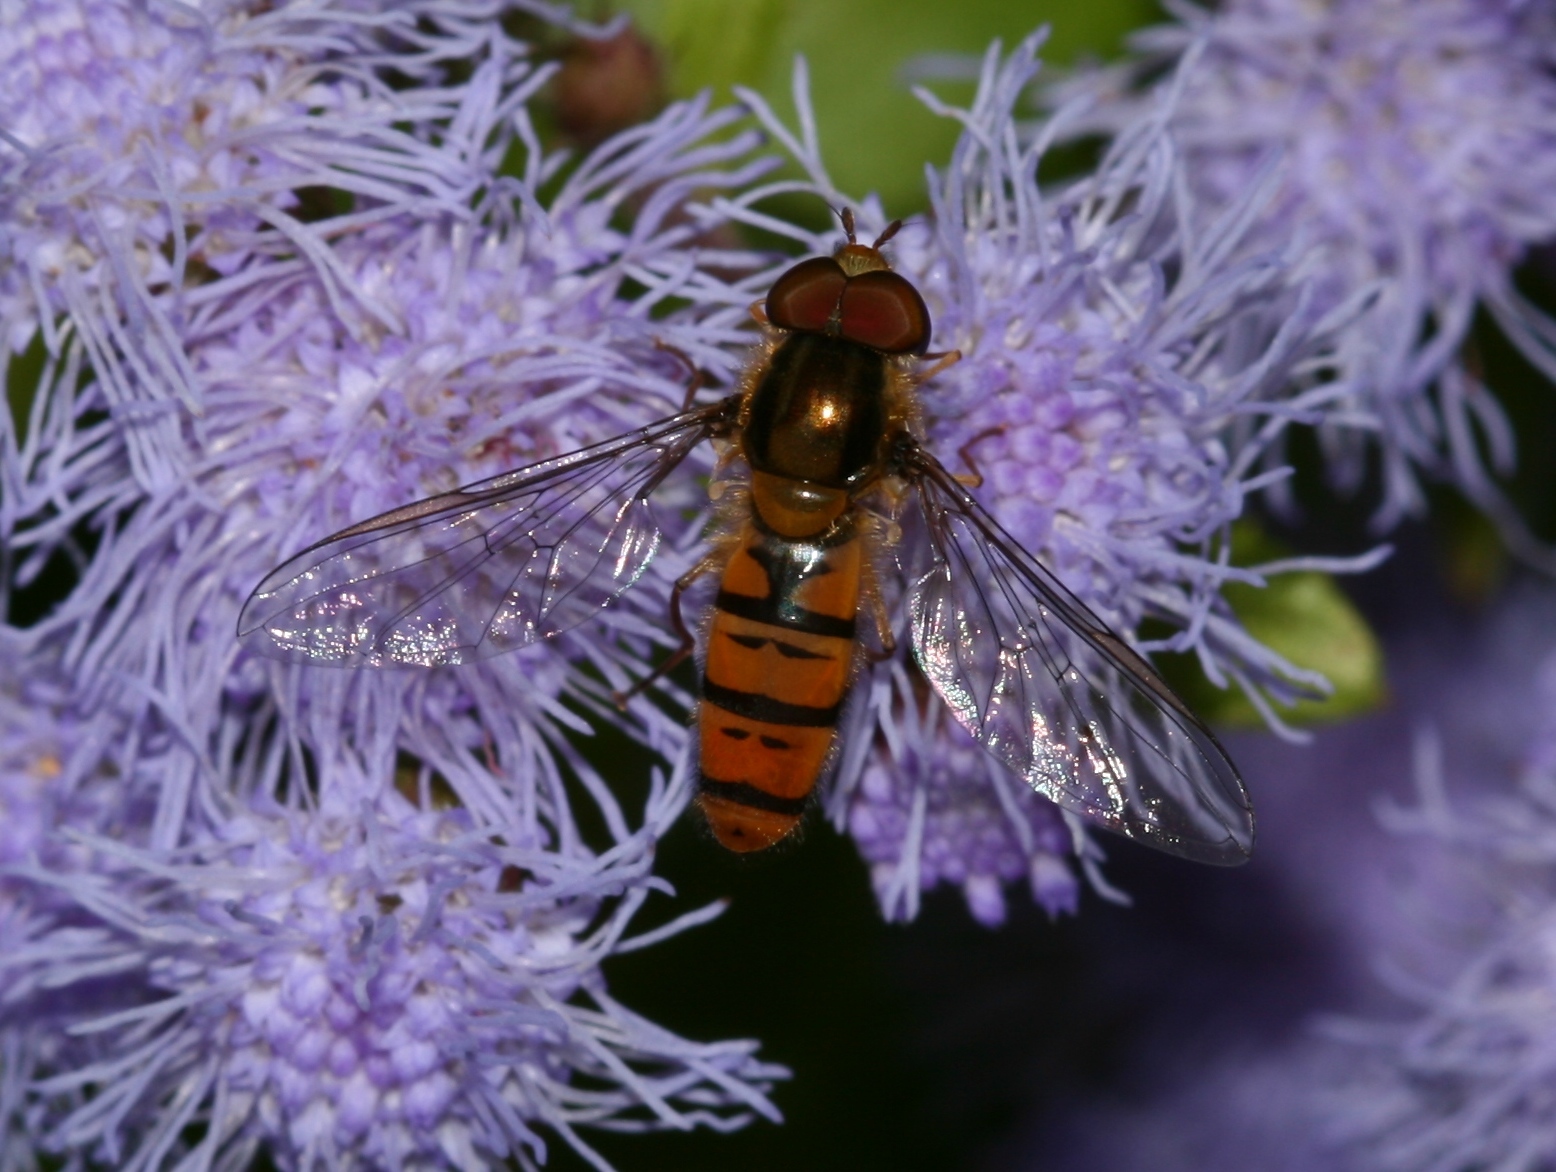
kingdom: Animalia
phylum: Arthropoda
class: Insecta
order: Diptera
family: Syrphidae
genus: Episyrphus
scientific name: Episyrphus balteatus
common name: Marmalade hoverfly
